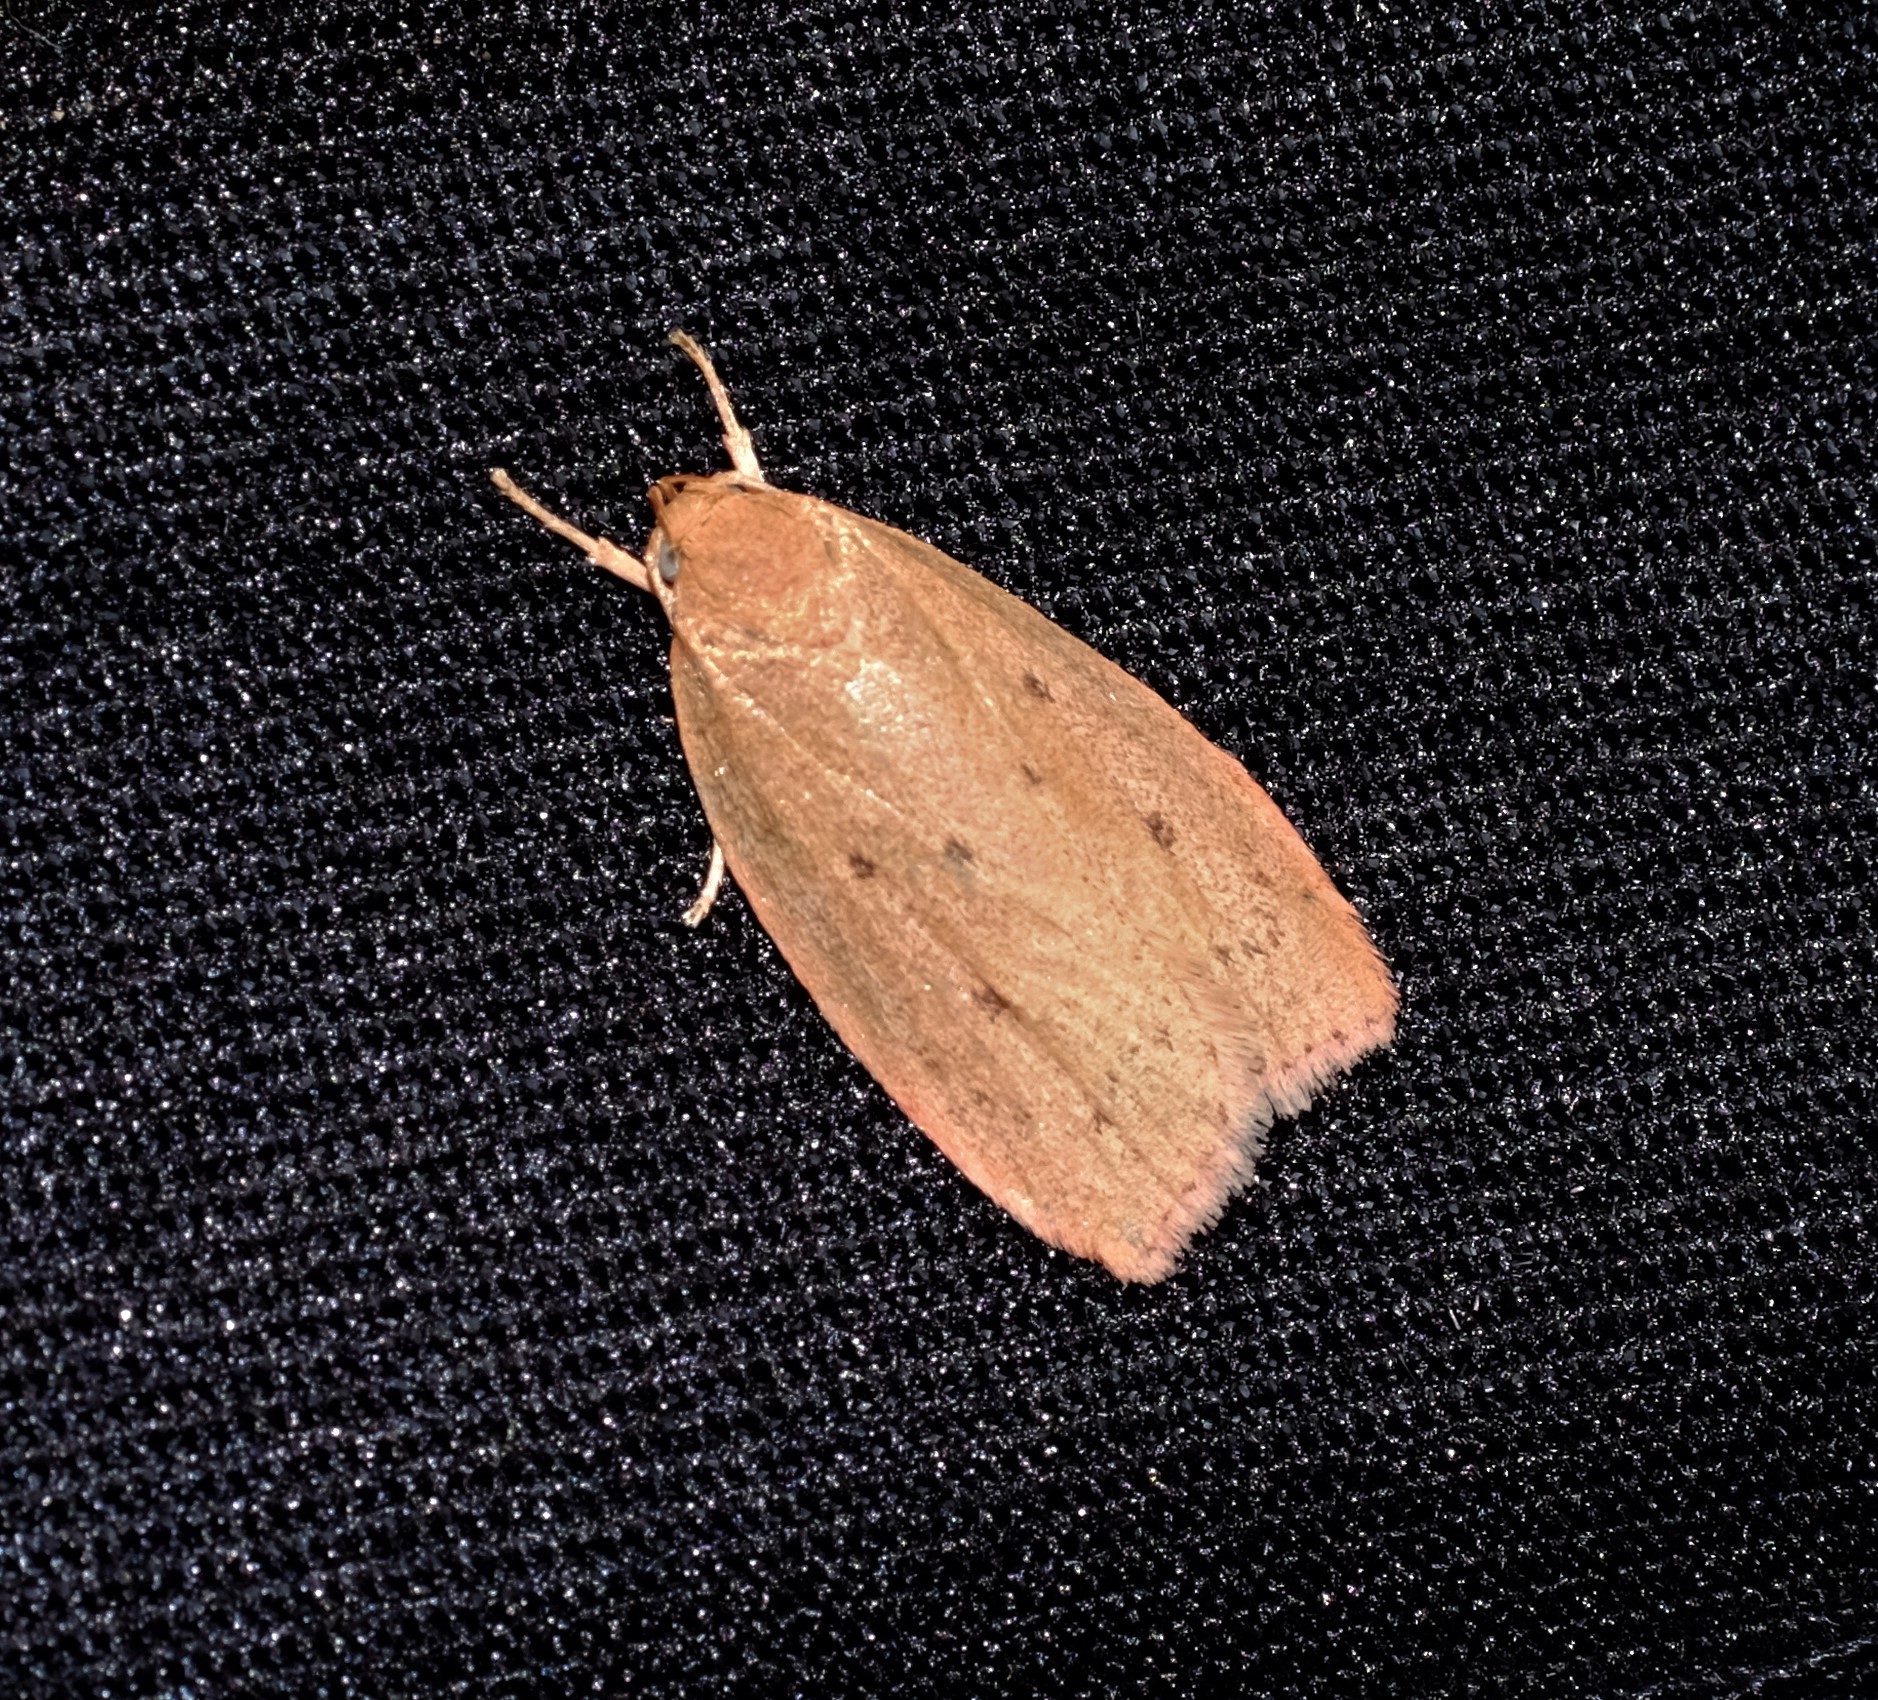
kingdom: Animalia
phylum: Arthropoda
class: Insecta
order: Lepidoptera
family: Oecophoridae
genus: Garrha
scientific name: Garrha leucerythra
